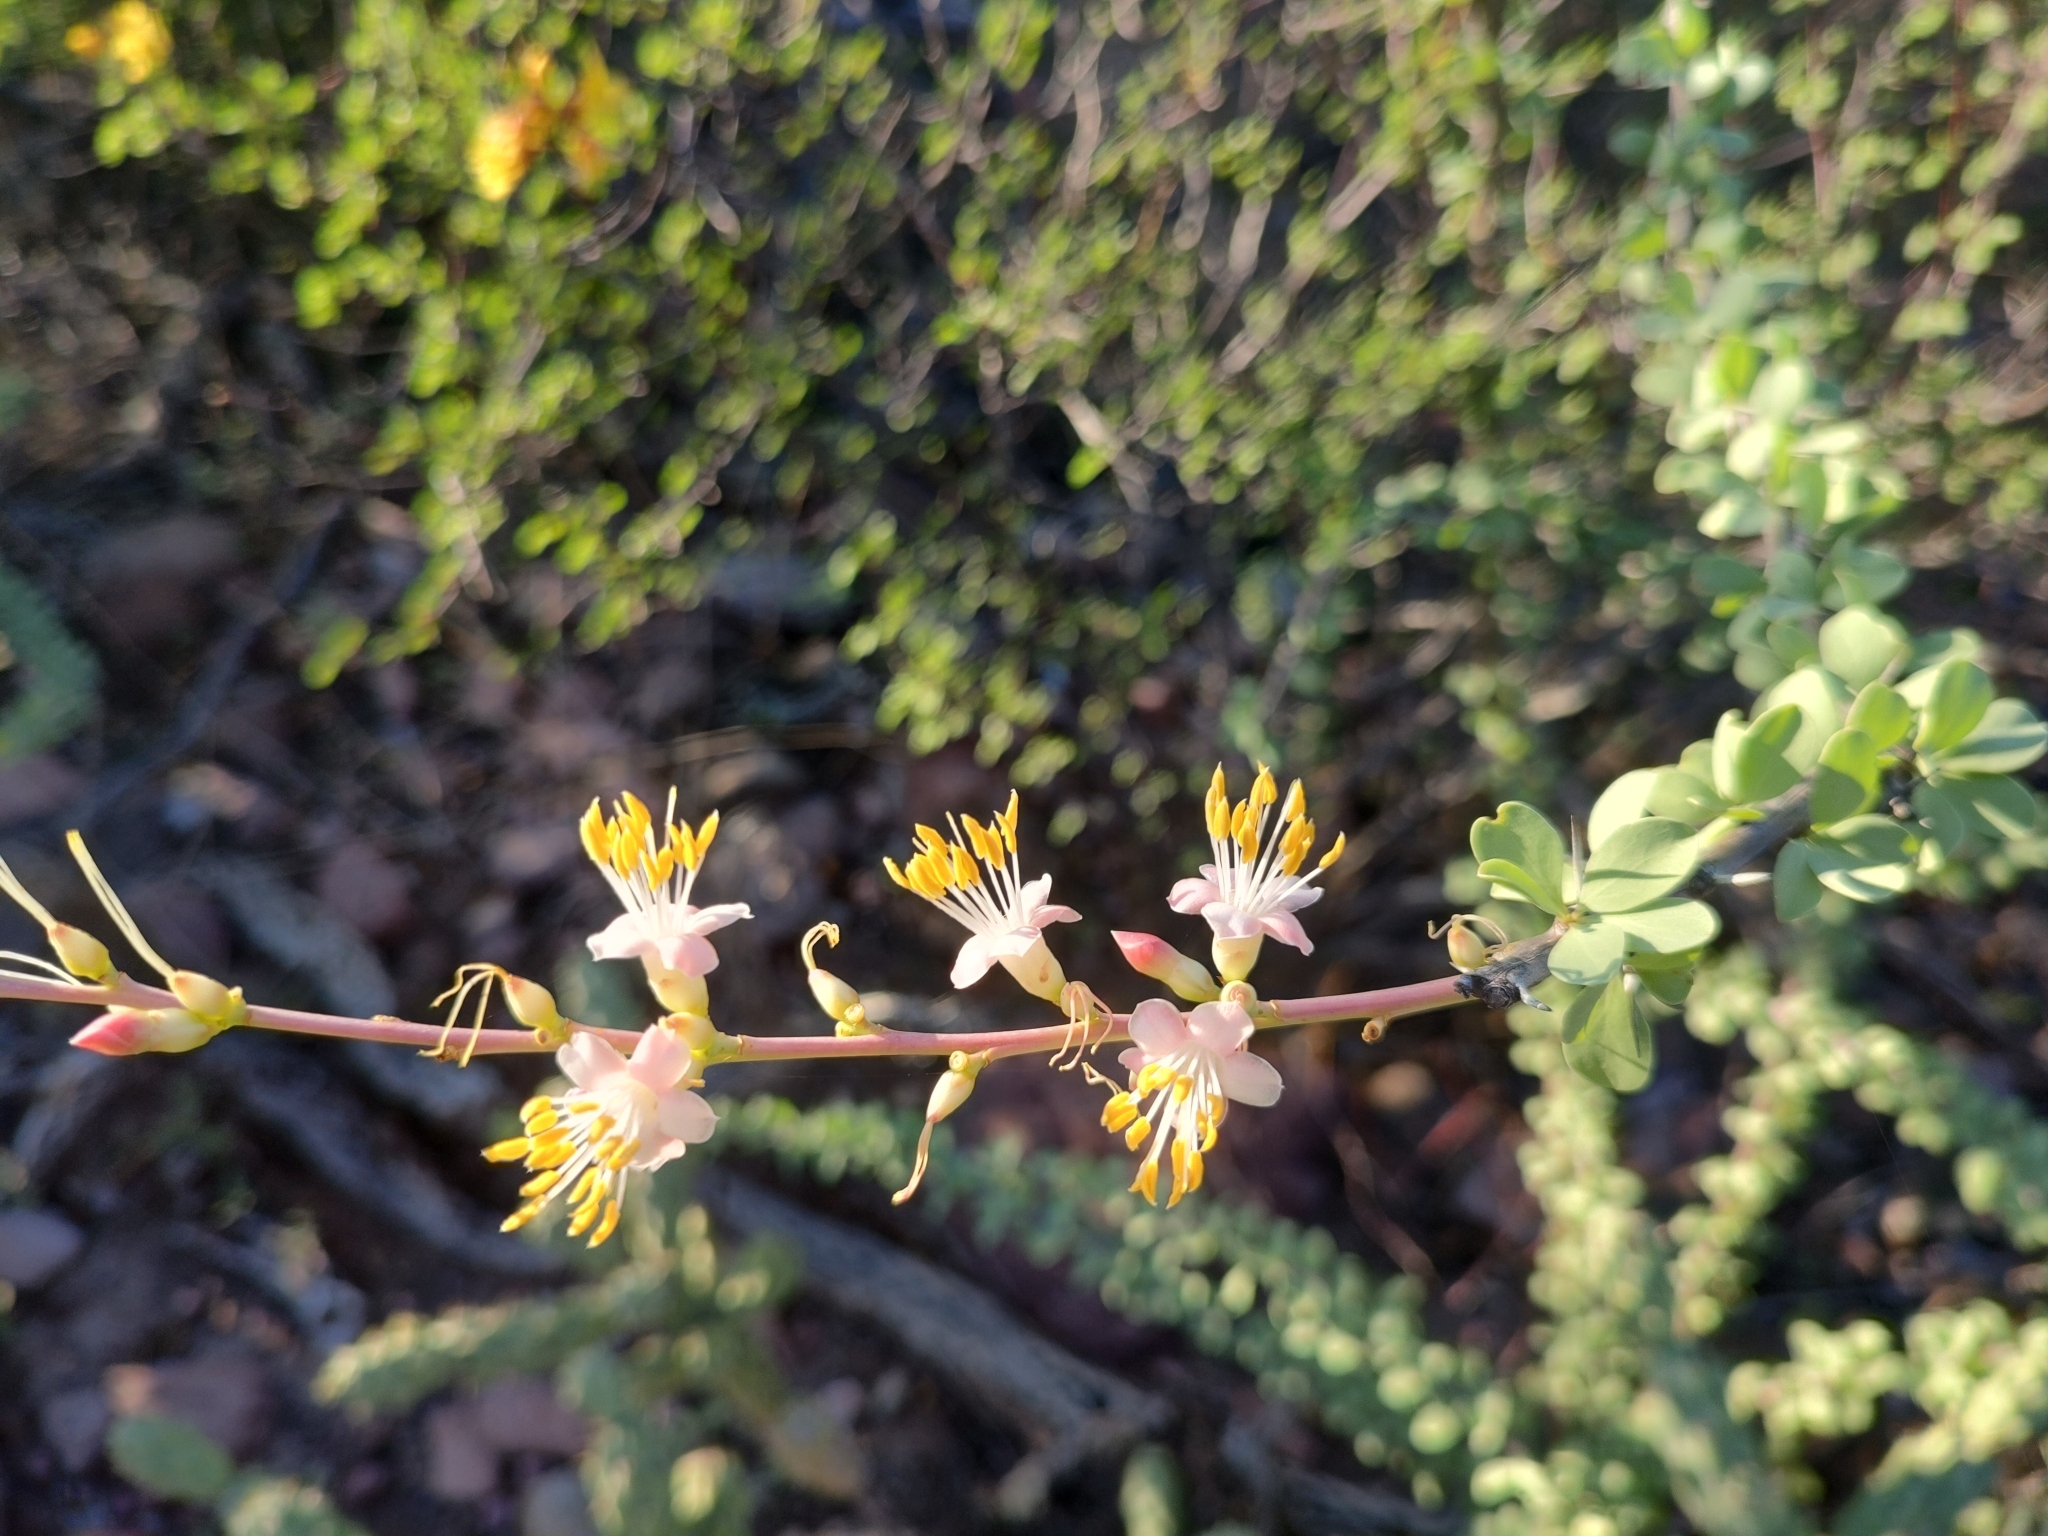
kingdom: Plantae
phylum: Tracheophyta
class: Magnoliopsida
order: Ericales
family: Fouquieriaceae
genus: Fouquieria
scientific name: Fouquieria burragei
